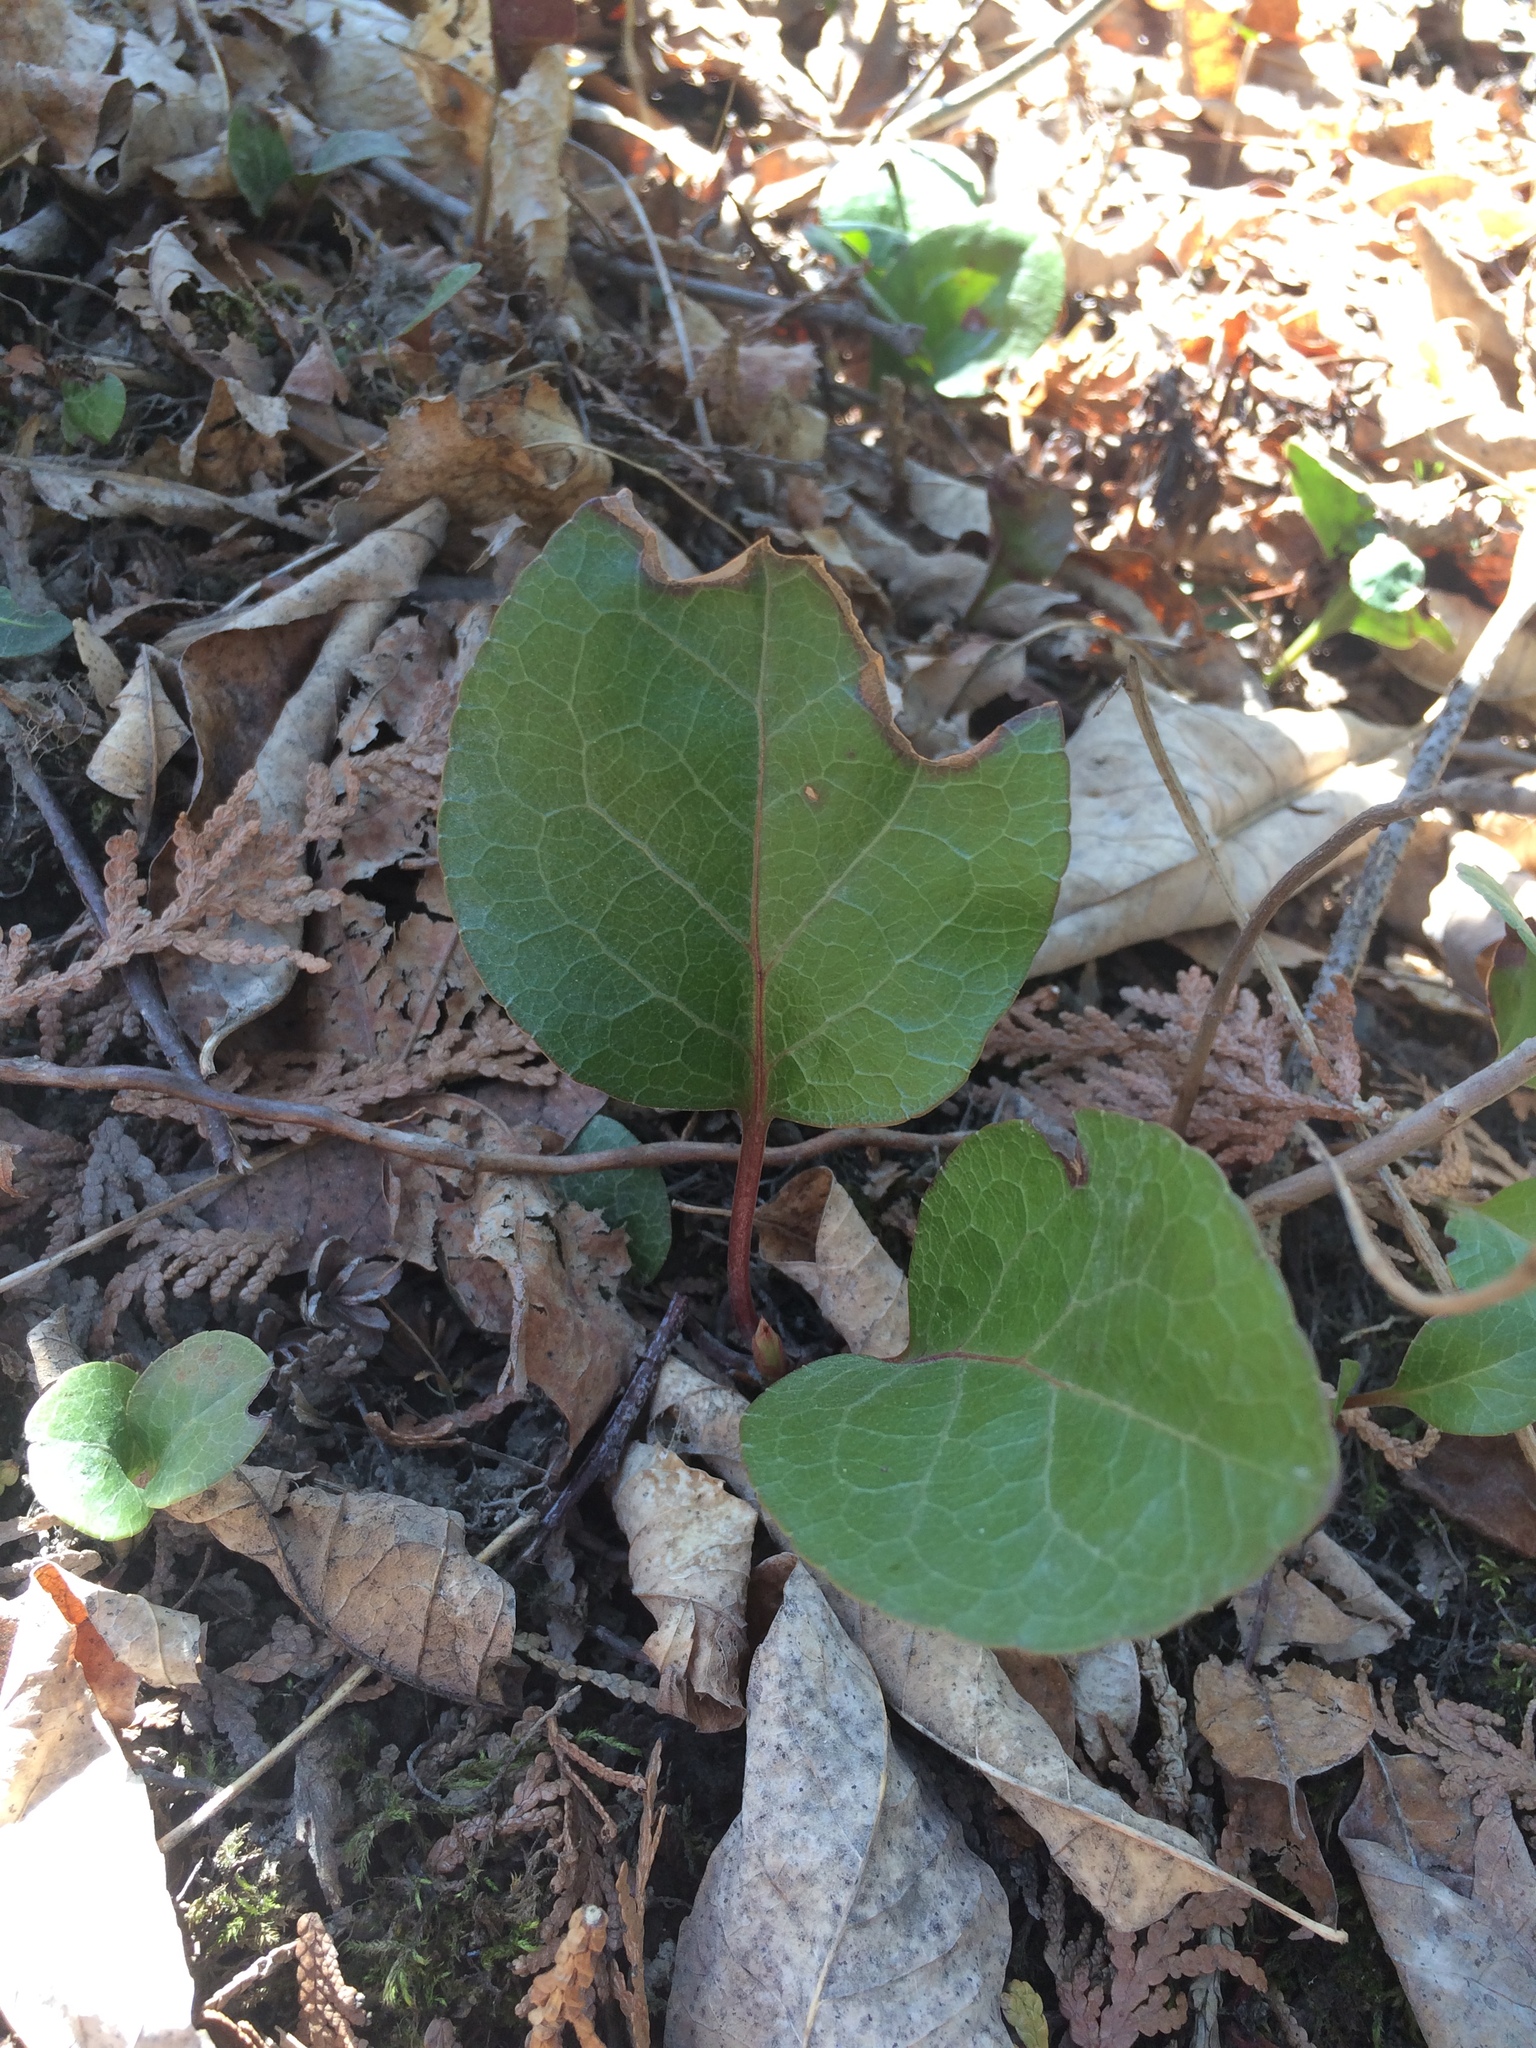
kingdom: Plantae
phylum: Tracheophyta
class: Magnoliopsida
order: Ericales
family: Ericaceae
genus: Pyrola
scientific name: Pyrola americana
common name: American wintergreen
